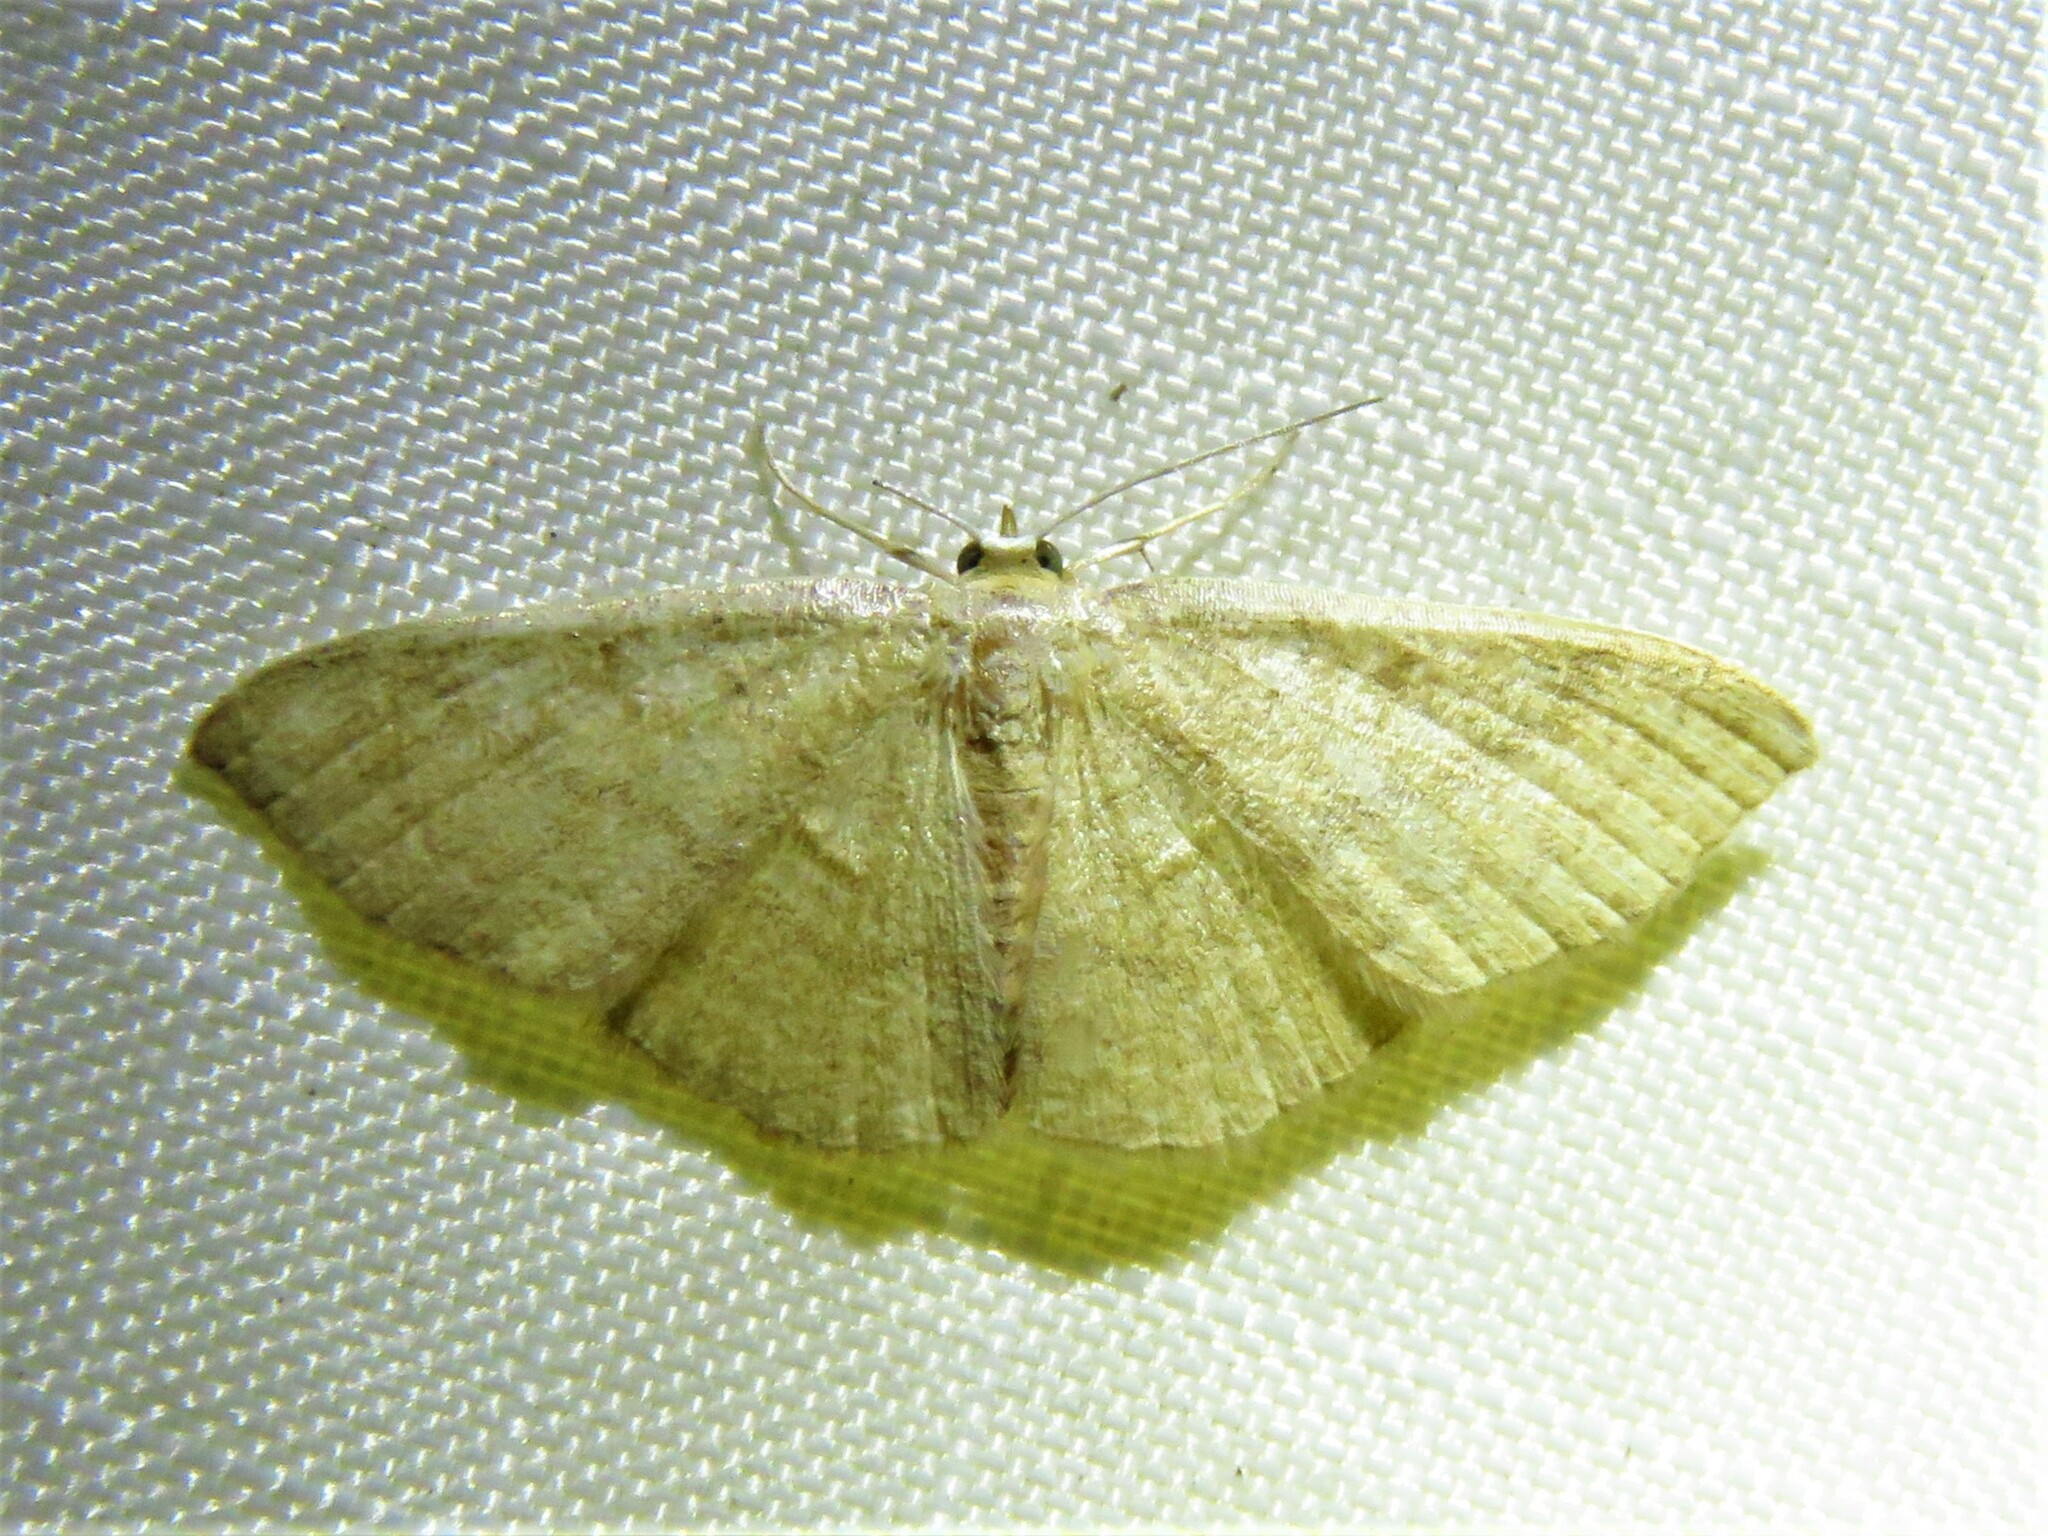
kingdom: Animalia
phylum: Arthropoda
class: Insecta
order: Lepidoptera
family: Geometridae
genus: Pleuroprucha
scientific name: Pleuroprucha insulsaria
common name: Common tan wave
